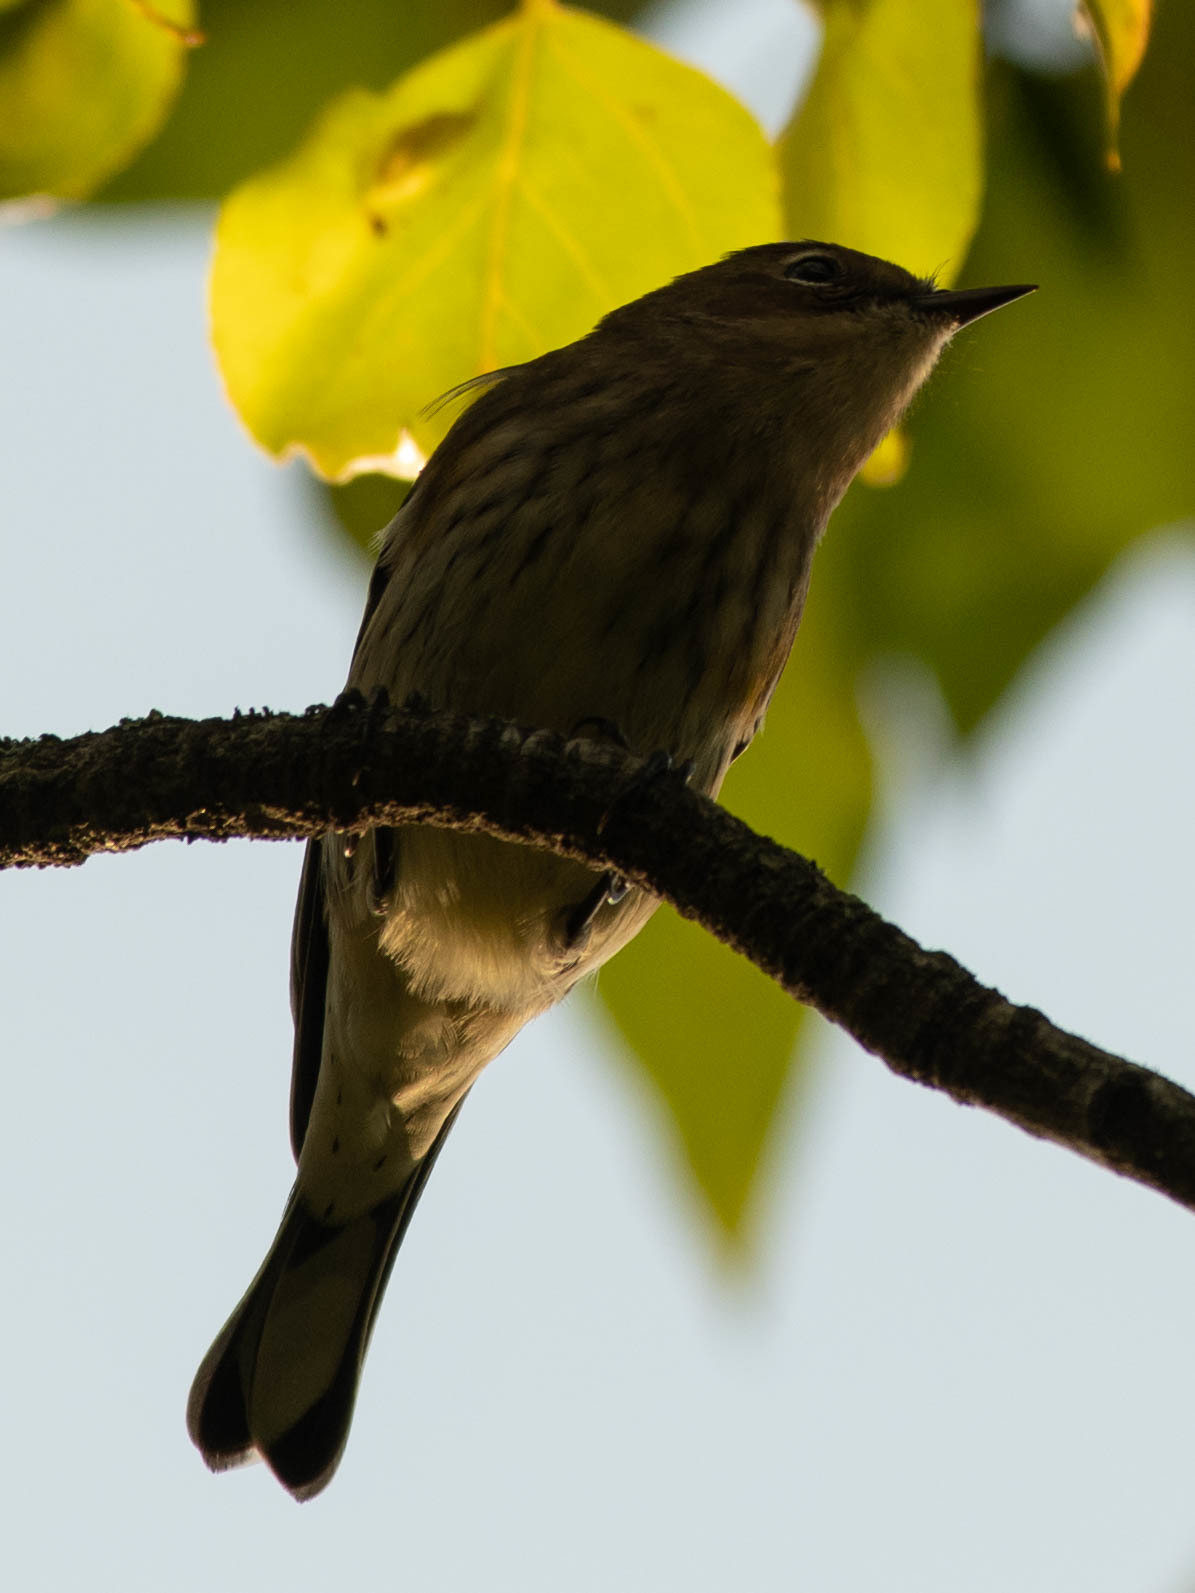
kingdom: Animalia
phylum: Chordata
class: Aves
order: Passeriformes
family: Parulidae
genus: Setophaga
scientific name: Setophaga coronata
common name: Myrtle warbler
